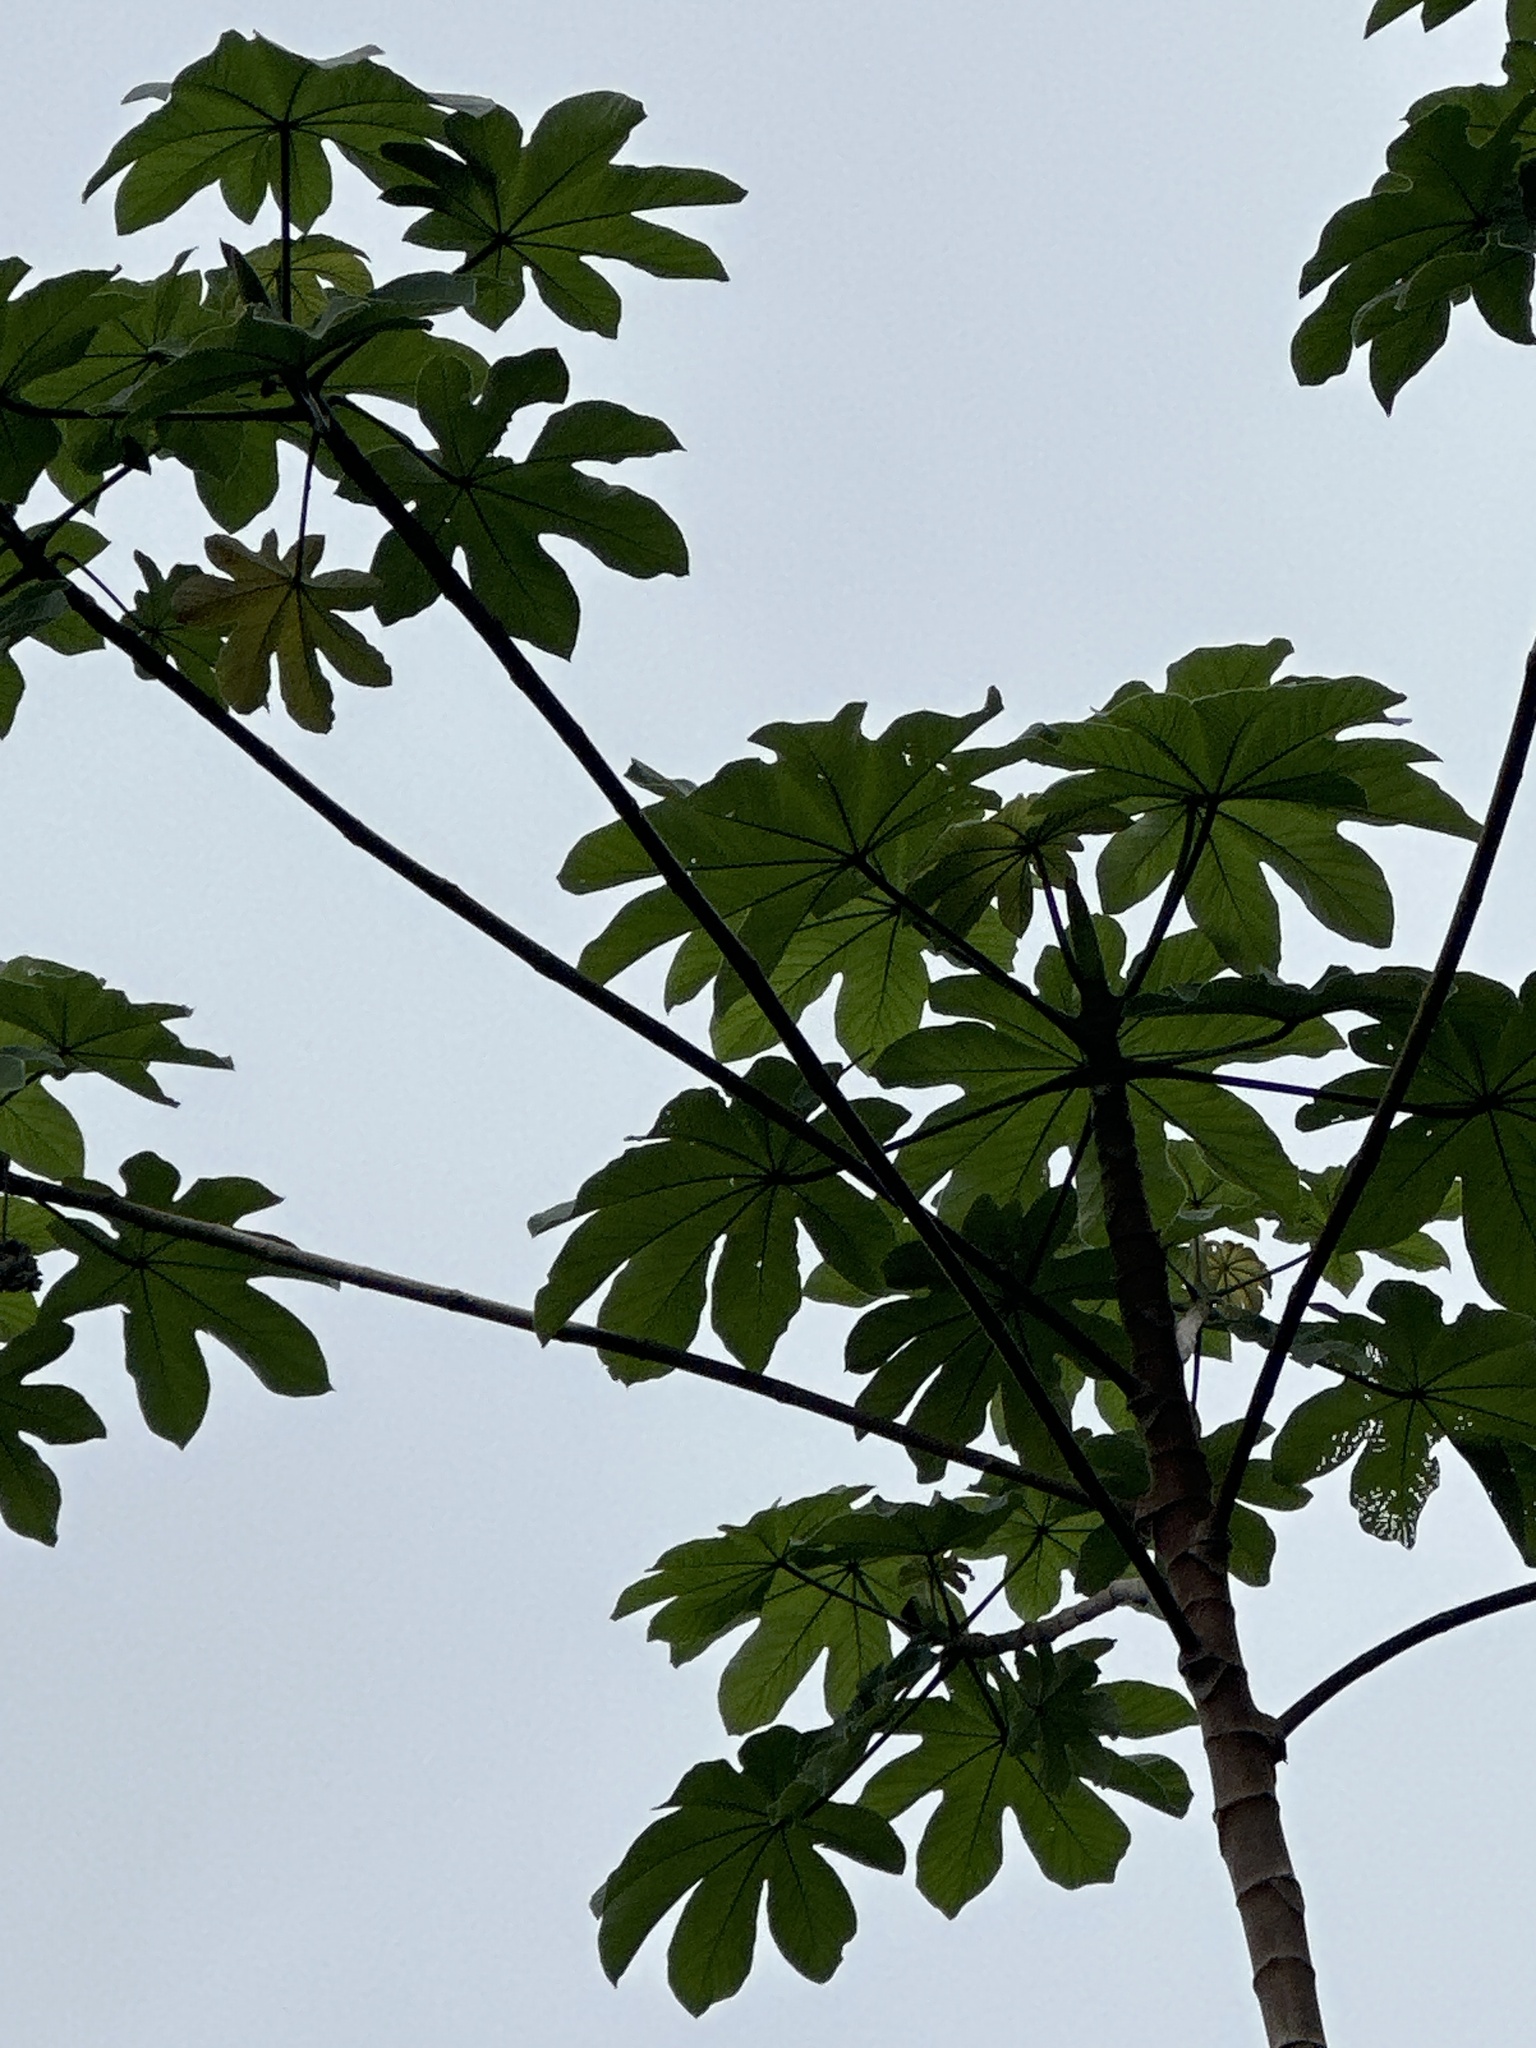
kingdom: Plantae
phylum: Tracheophyta
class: Magnoliopsida
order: Rosales
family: Urticaceae
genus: Cecropia
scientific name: Cecropia schreberiana
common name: Trumpet tree
